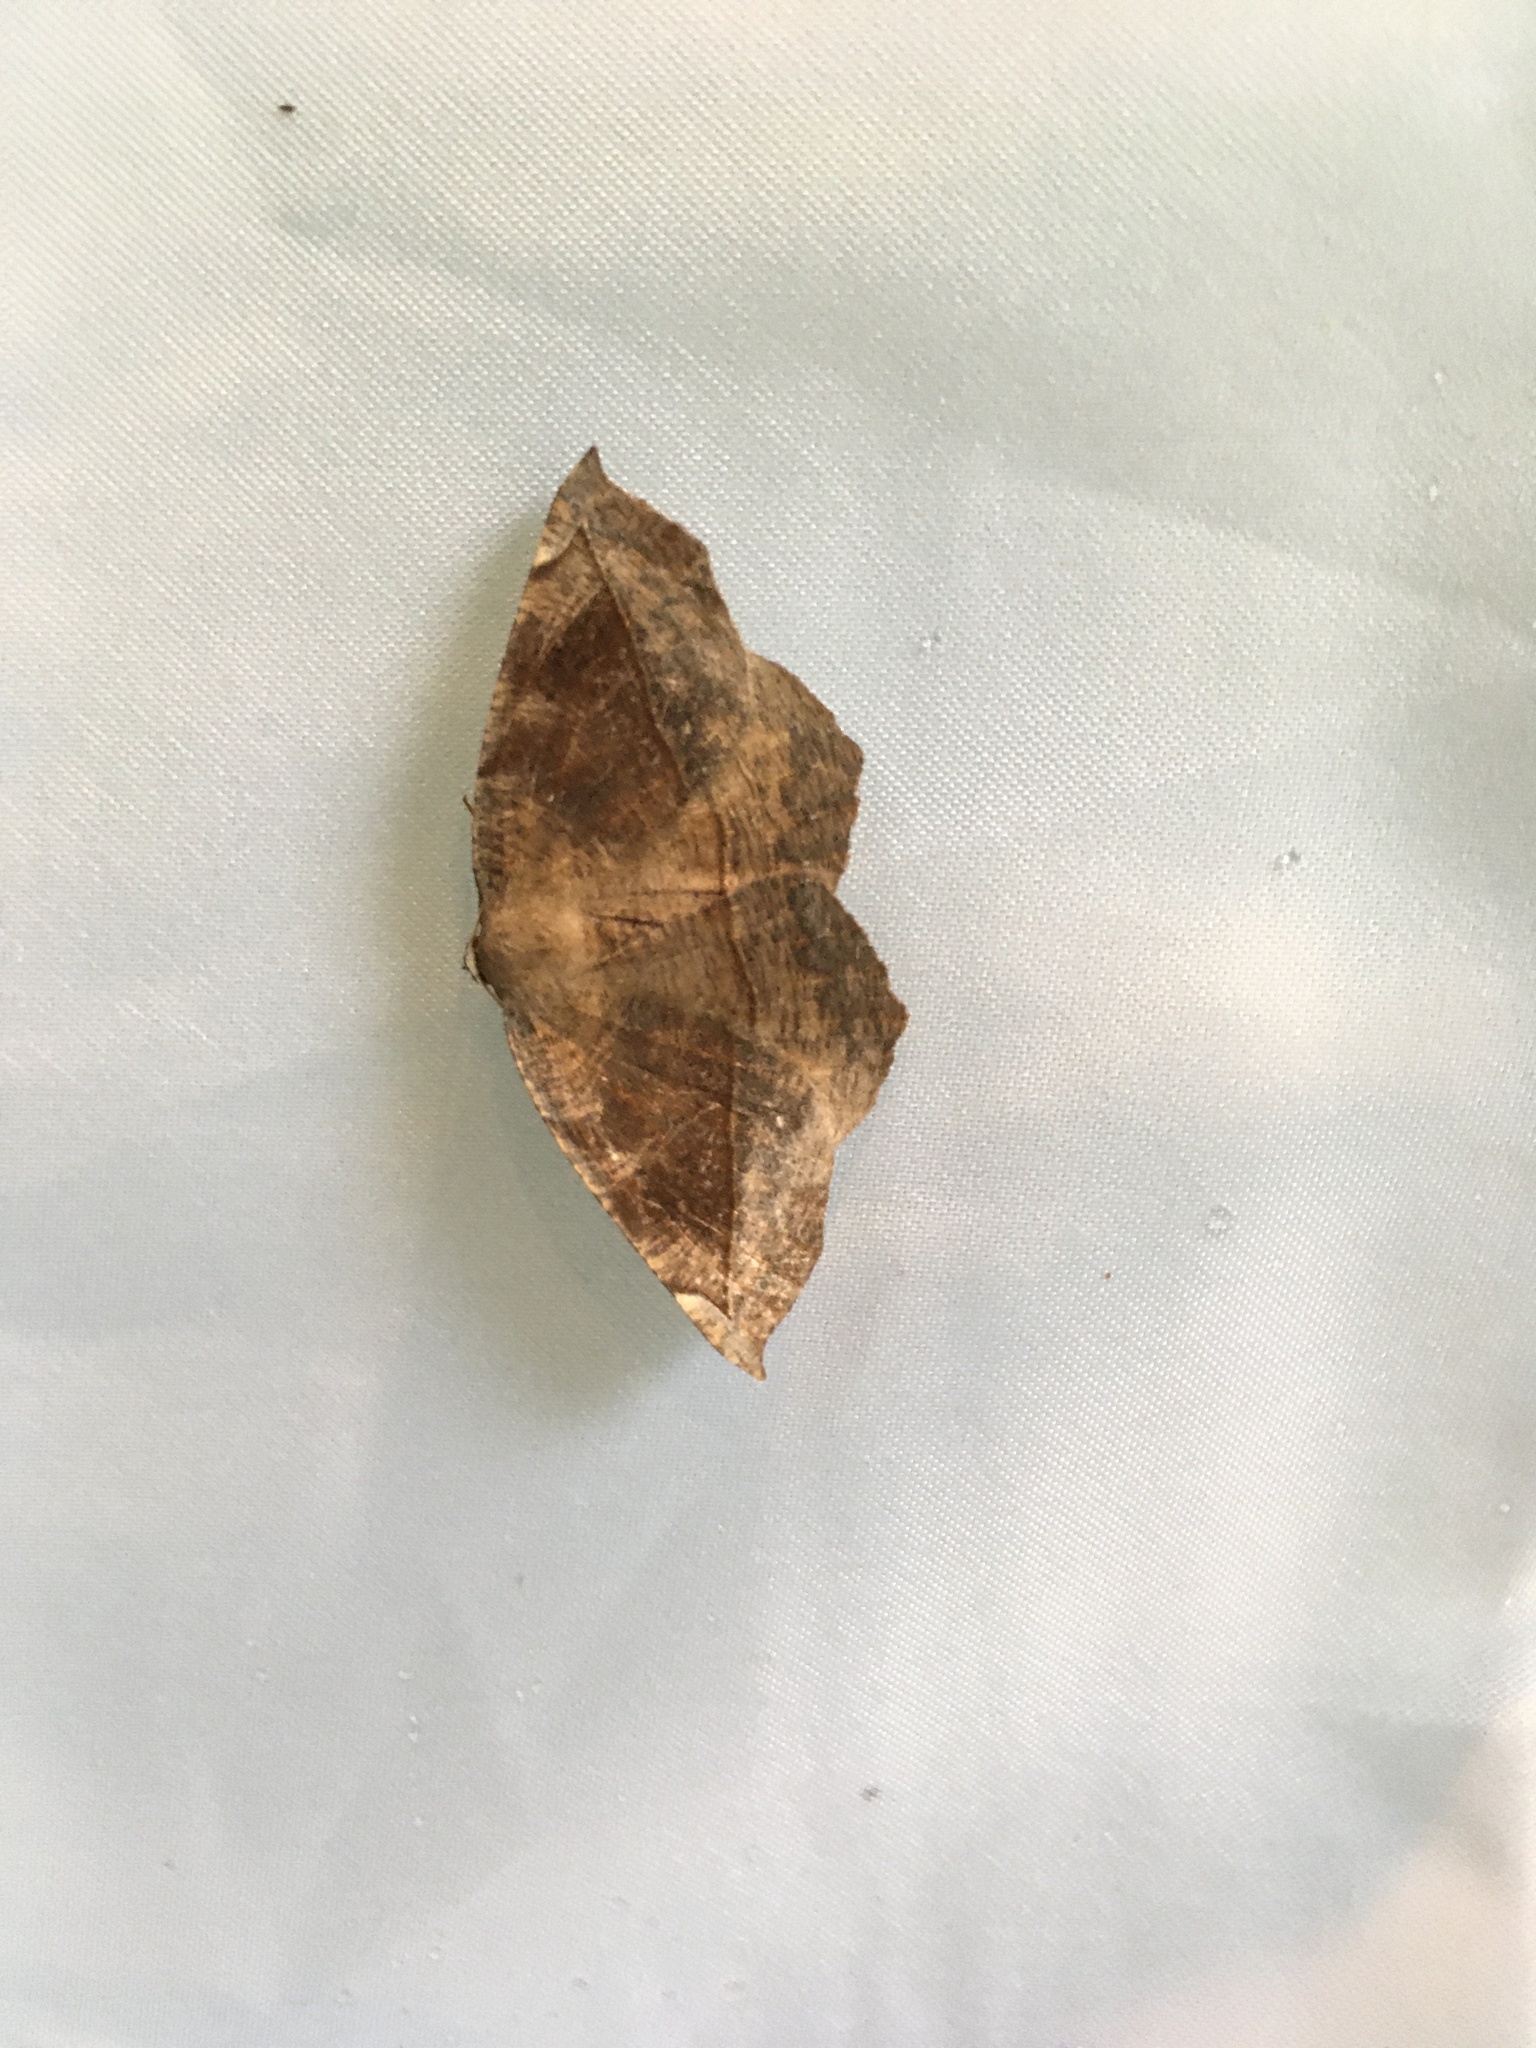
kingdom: Animalia
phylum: Arthropoda
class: Insecta
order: Lepidoptera
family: Geometridae
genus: Eutrapela
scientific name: Eutrapela clemataria
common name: Curved-toothed geometer
